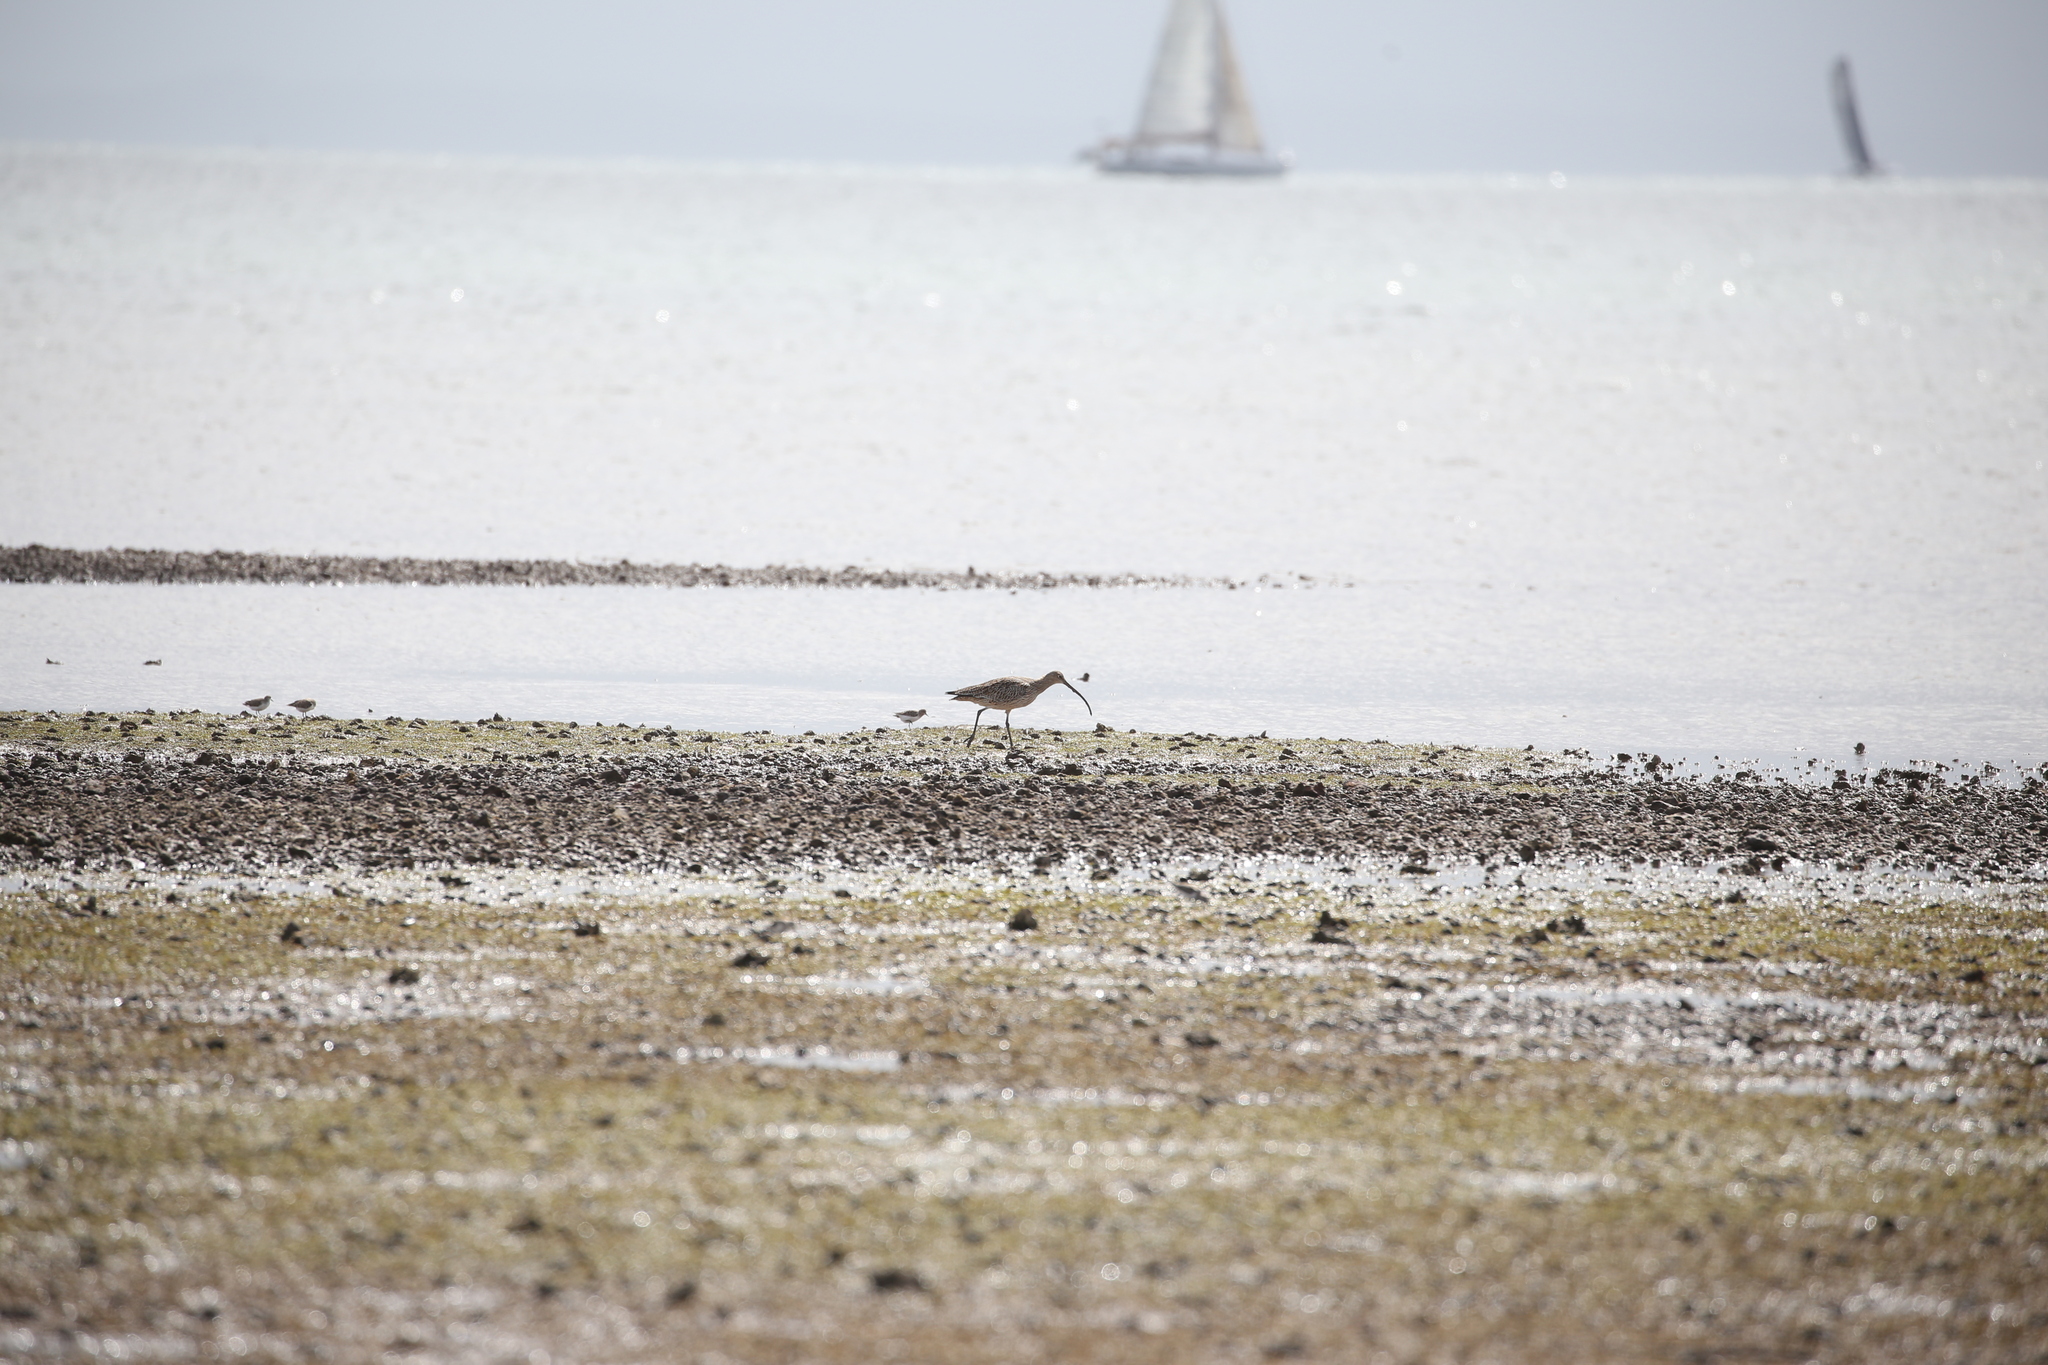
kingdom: Animalia
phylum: Chordata
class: Aves
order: Charadriiformes
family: Scolopacidae
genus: Numenius
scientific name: Numenius madagascariensis
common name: Far eastern curlew
